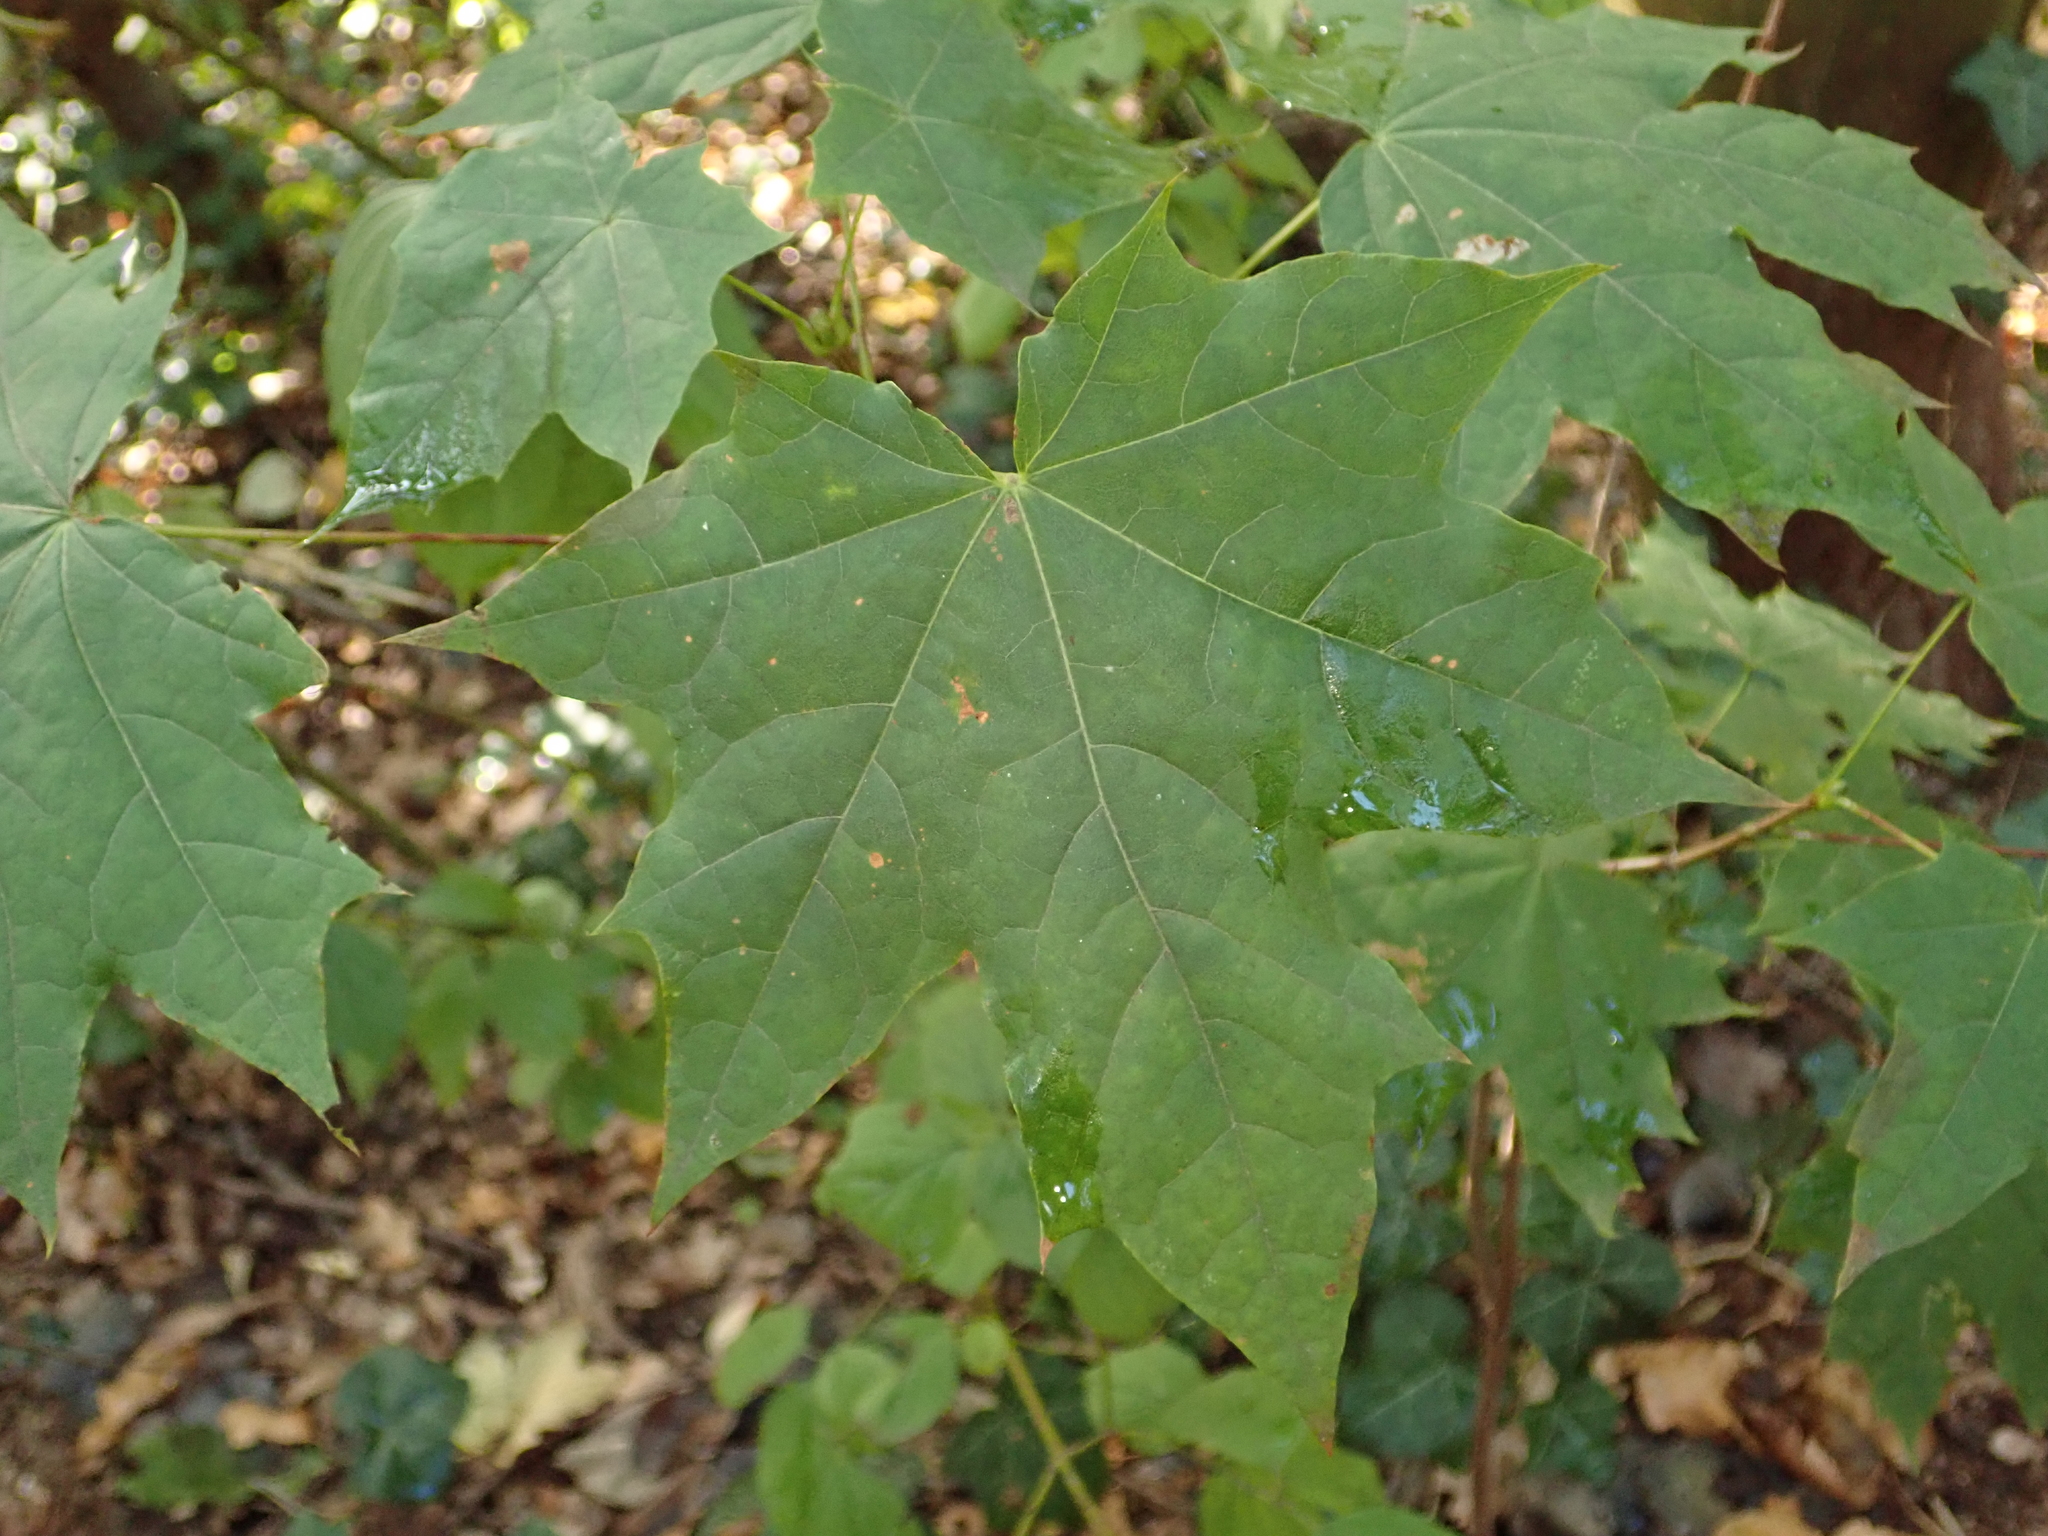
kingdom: Plantae
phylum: Tracheophyta
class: Magnoliopsida
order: Sapindales
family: Sapindaceae
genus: Acer
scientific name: Acer platanoides
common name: Norway maple
